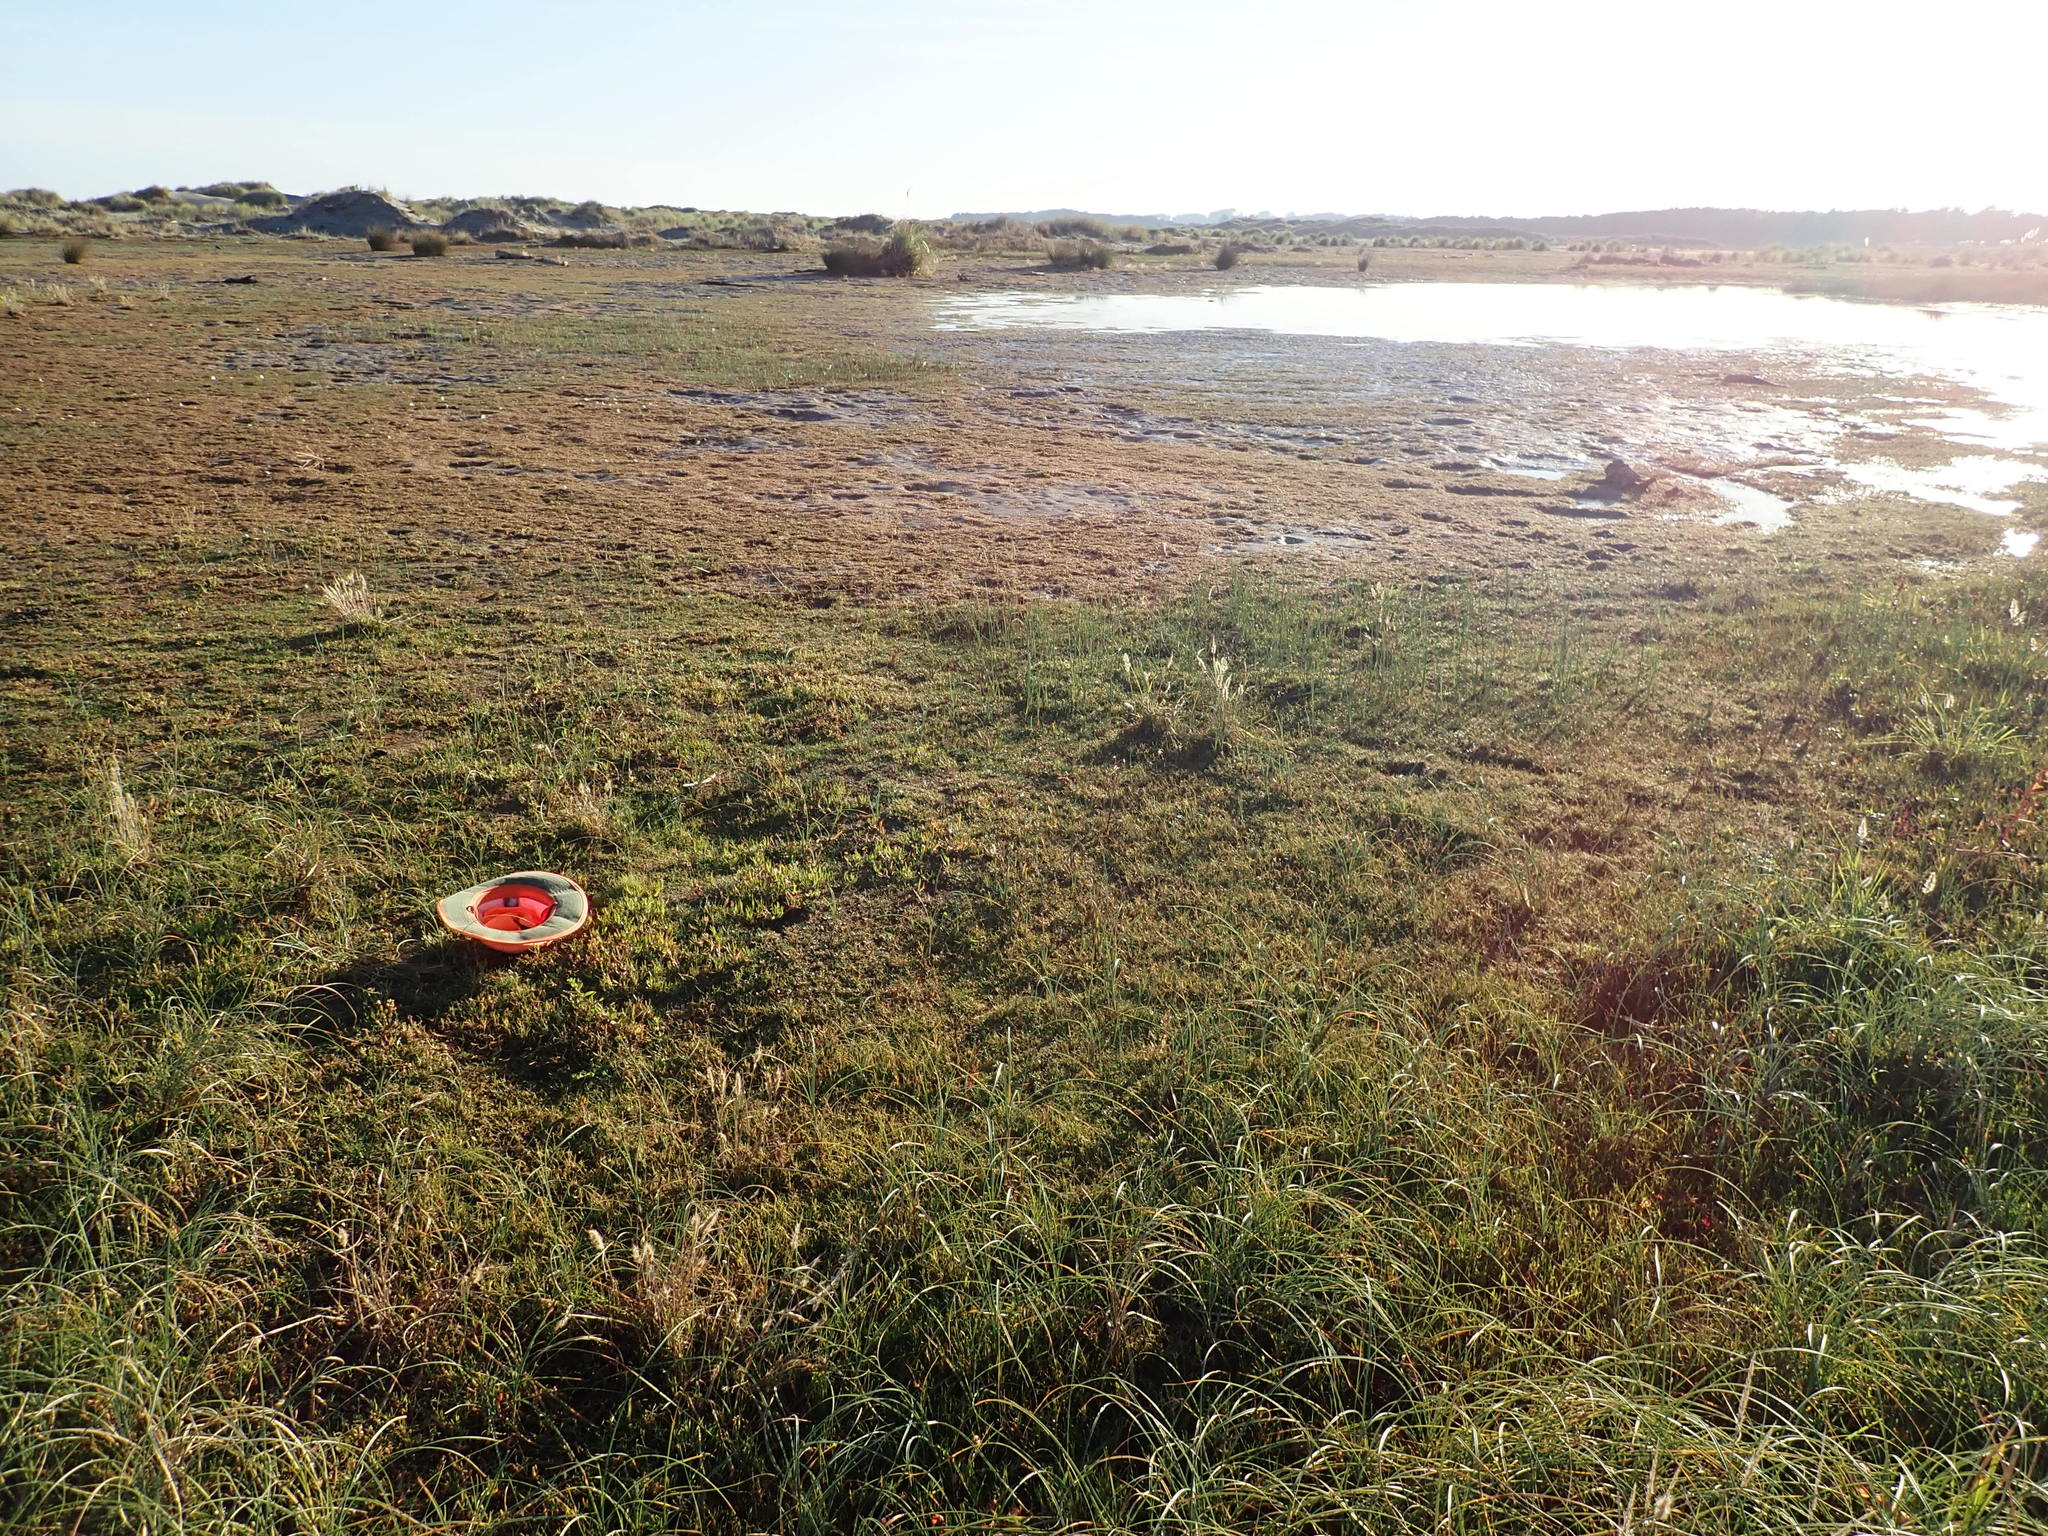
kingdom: Plantae
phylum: Tracheophyta
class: Magnoliopsida
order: Asterales
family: Asteraceae
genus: Cotula
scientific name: Cotula coronopifolia
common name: Buttonweed
